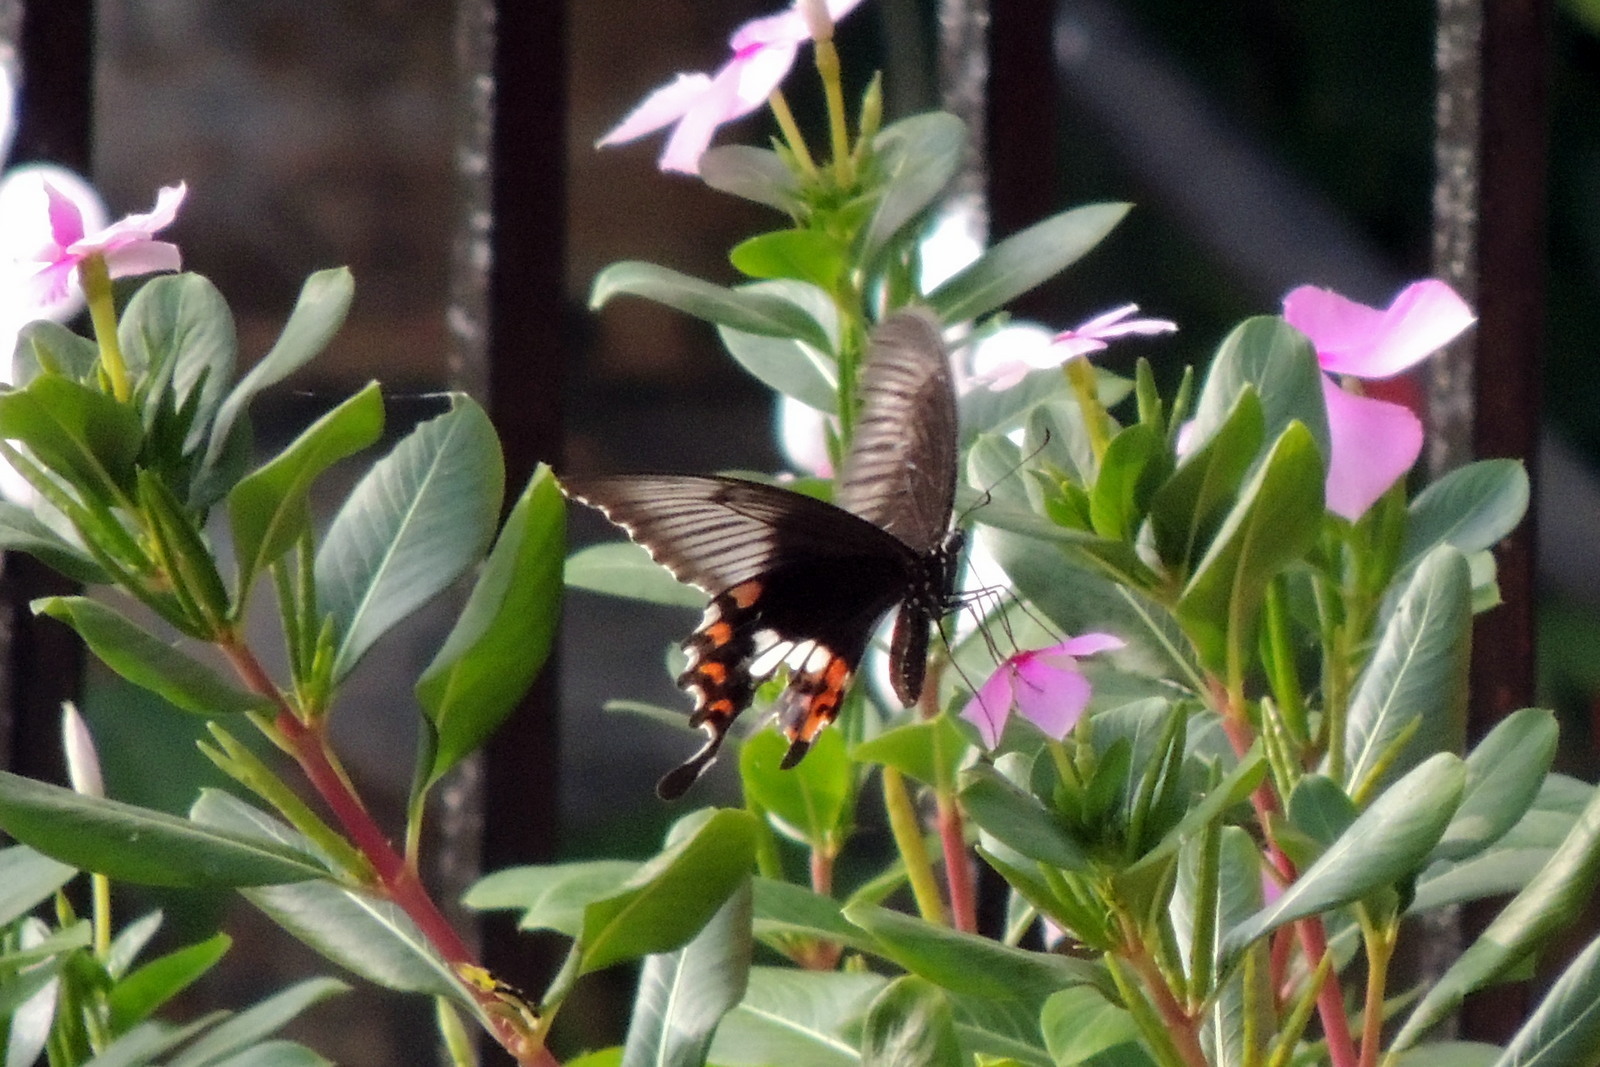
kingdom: Animalia
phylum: Arthropoda
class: Insecta
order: Lepidoptera
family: Papilionidae
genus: Papilio
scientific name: Papilio polytes
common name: Common mormon
